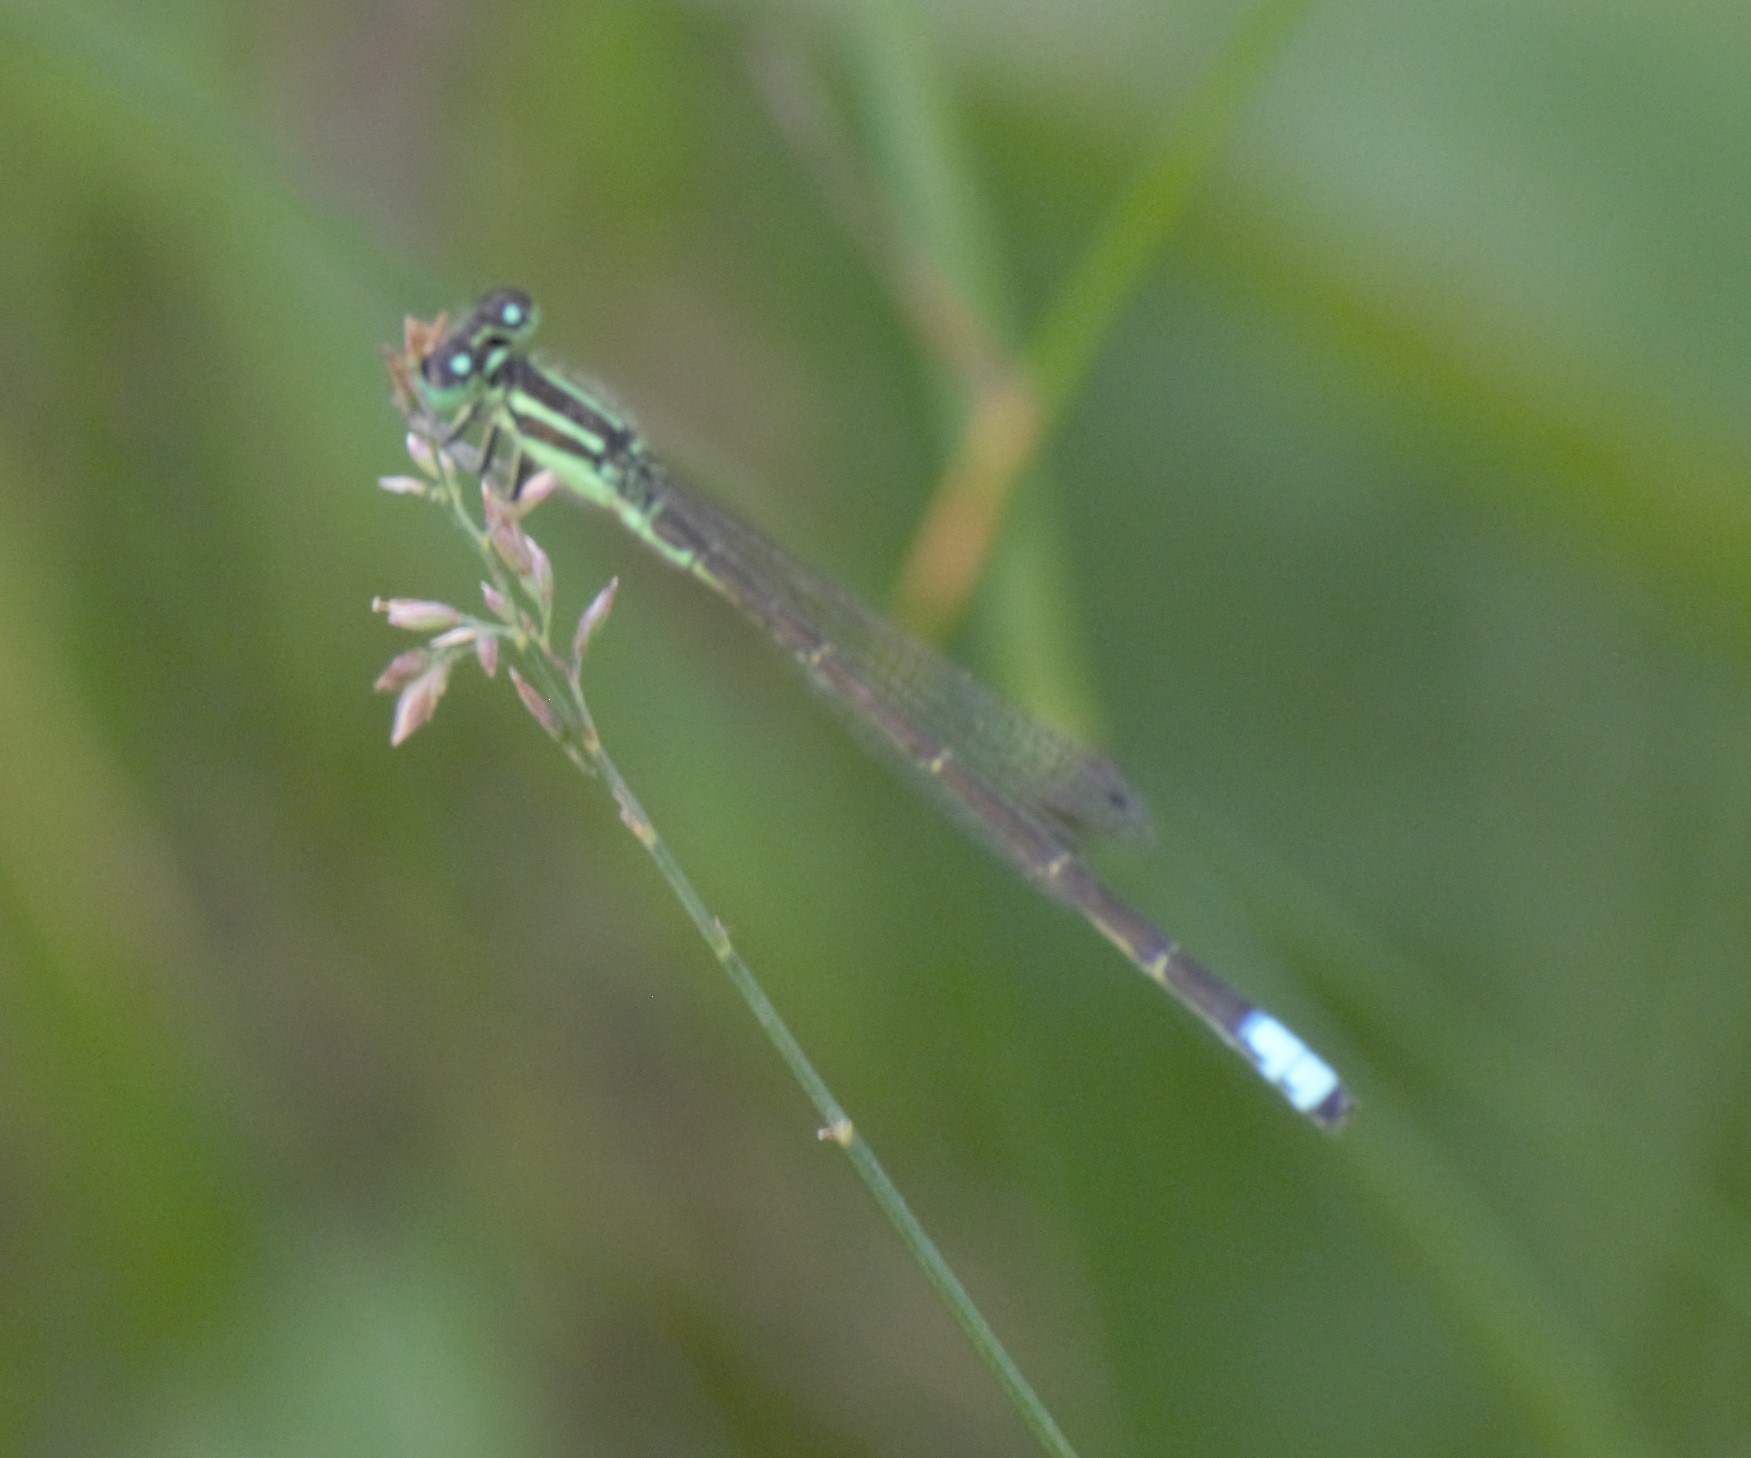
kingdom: Animalia
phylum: Arthropoda
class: Insecta
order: Odonata
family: Coenagrionidae
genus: Ischnura
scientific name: Ischnura verticalis
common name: Eastern forktail
